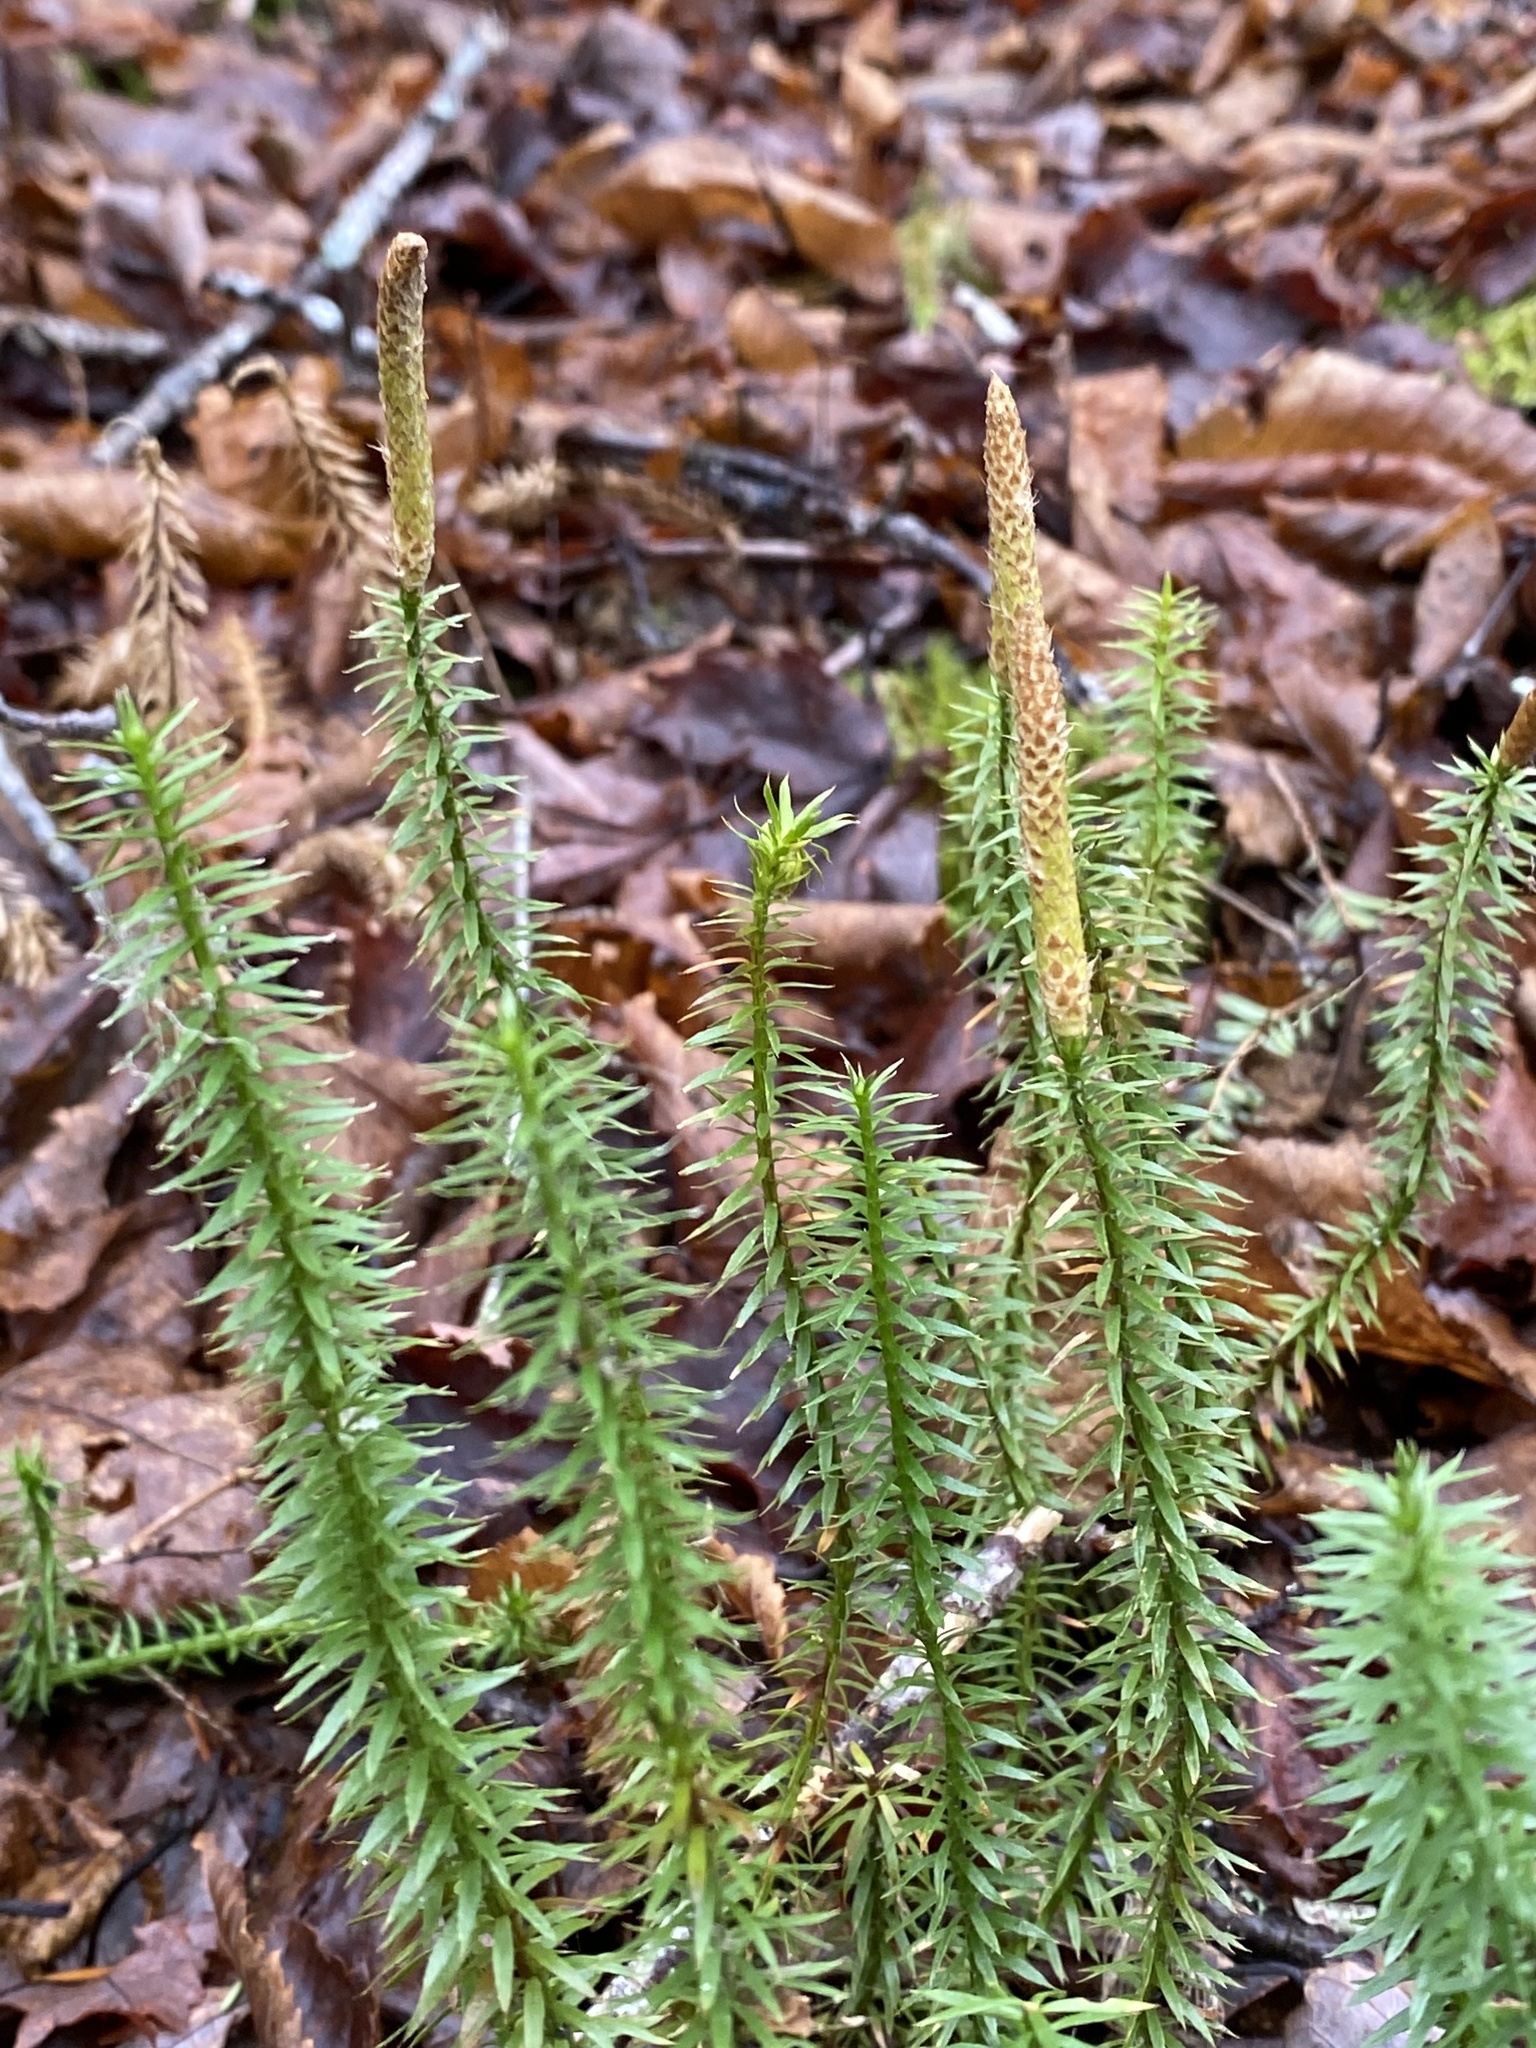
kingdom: Plantae
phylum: Tracheophyta
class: Lycopodiopsida
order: Lycopodiales
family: Lycopodiaceae
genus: Spinulum
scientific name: Spinulum annotinum
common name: Interrupted club-moss
